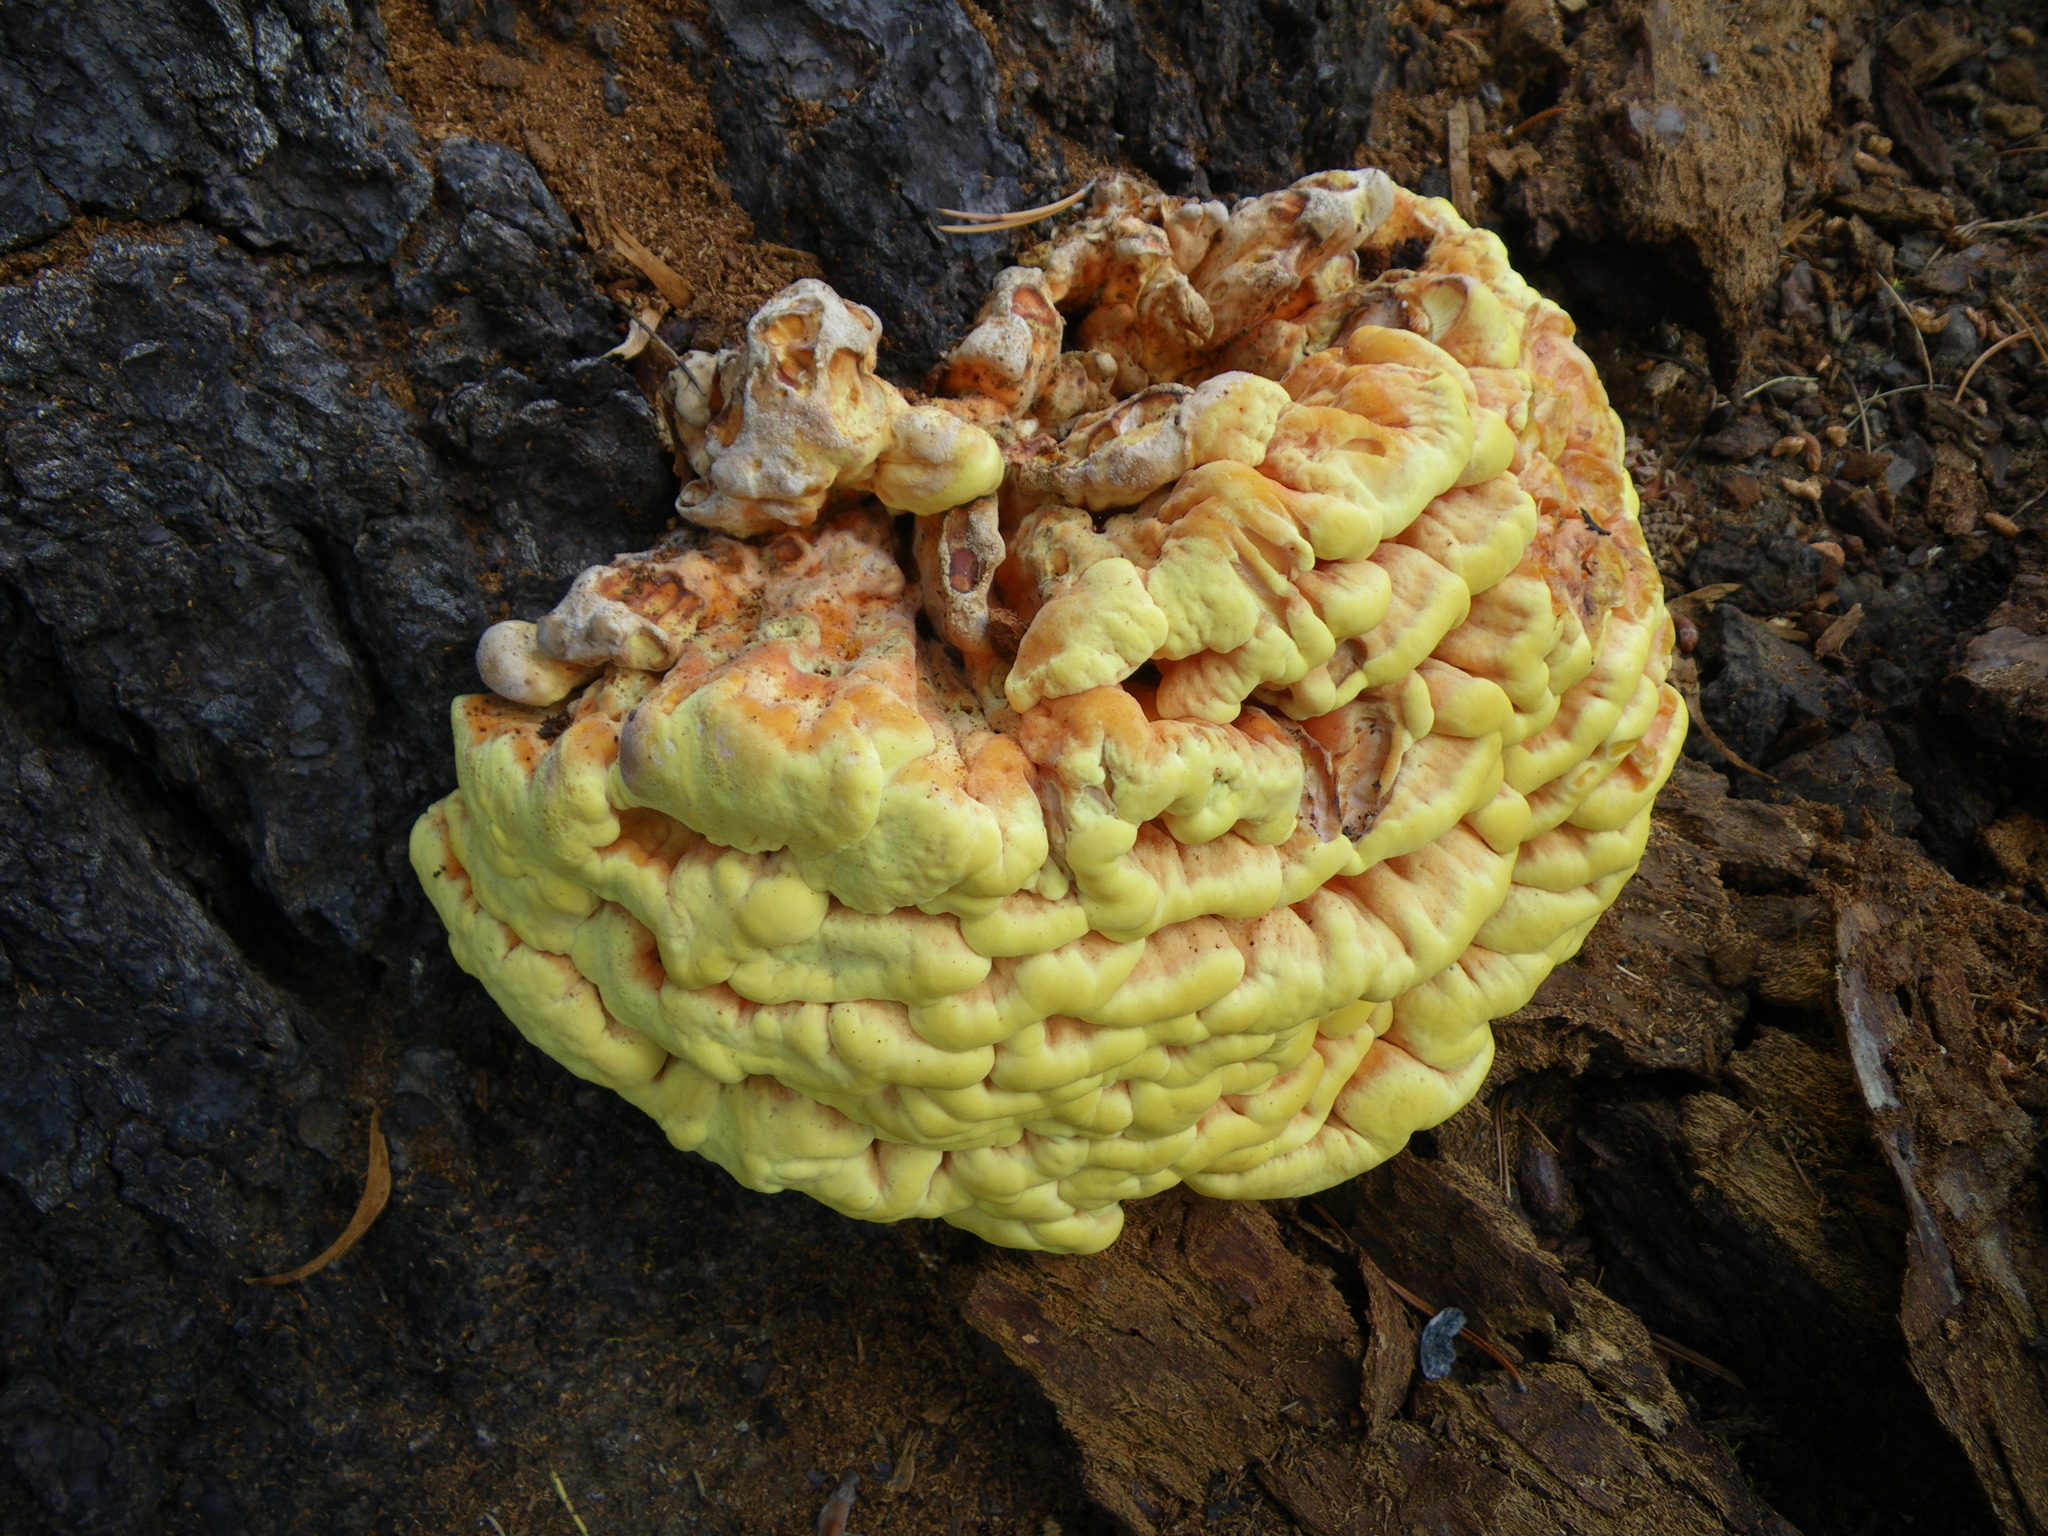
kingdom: Fungi
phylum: Basidiomycota
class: Agaricomycetes
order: Polyporales
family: Laetiporaceae
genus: Laetiporus
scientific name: Laetiporus conifericola
